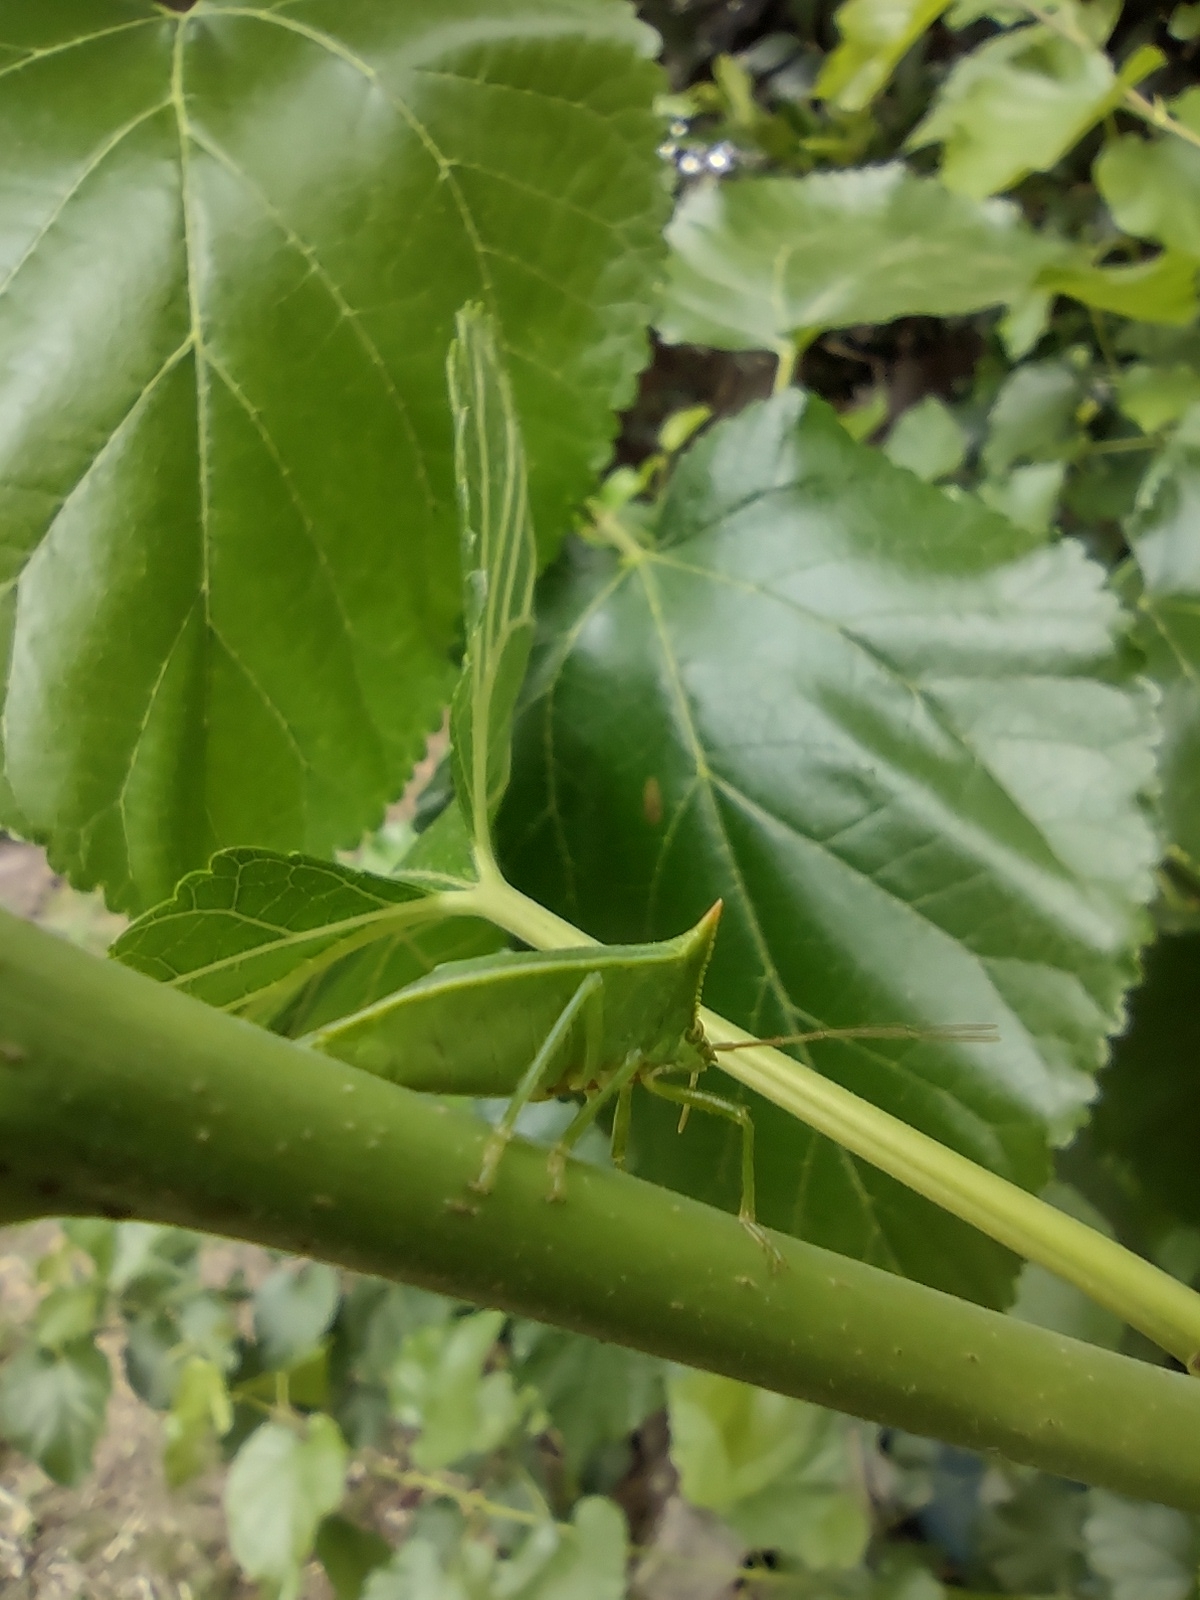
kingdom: Animalia
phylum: Arthropoda
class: Insecta
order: Hemiptera
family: Pentatomidae
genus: Loxa
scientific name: Loxa deducta
